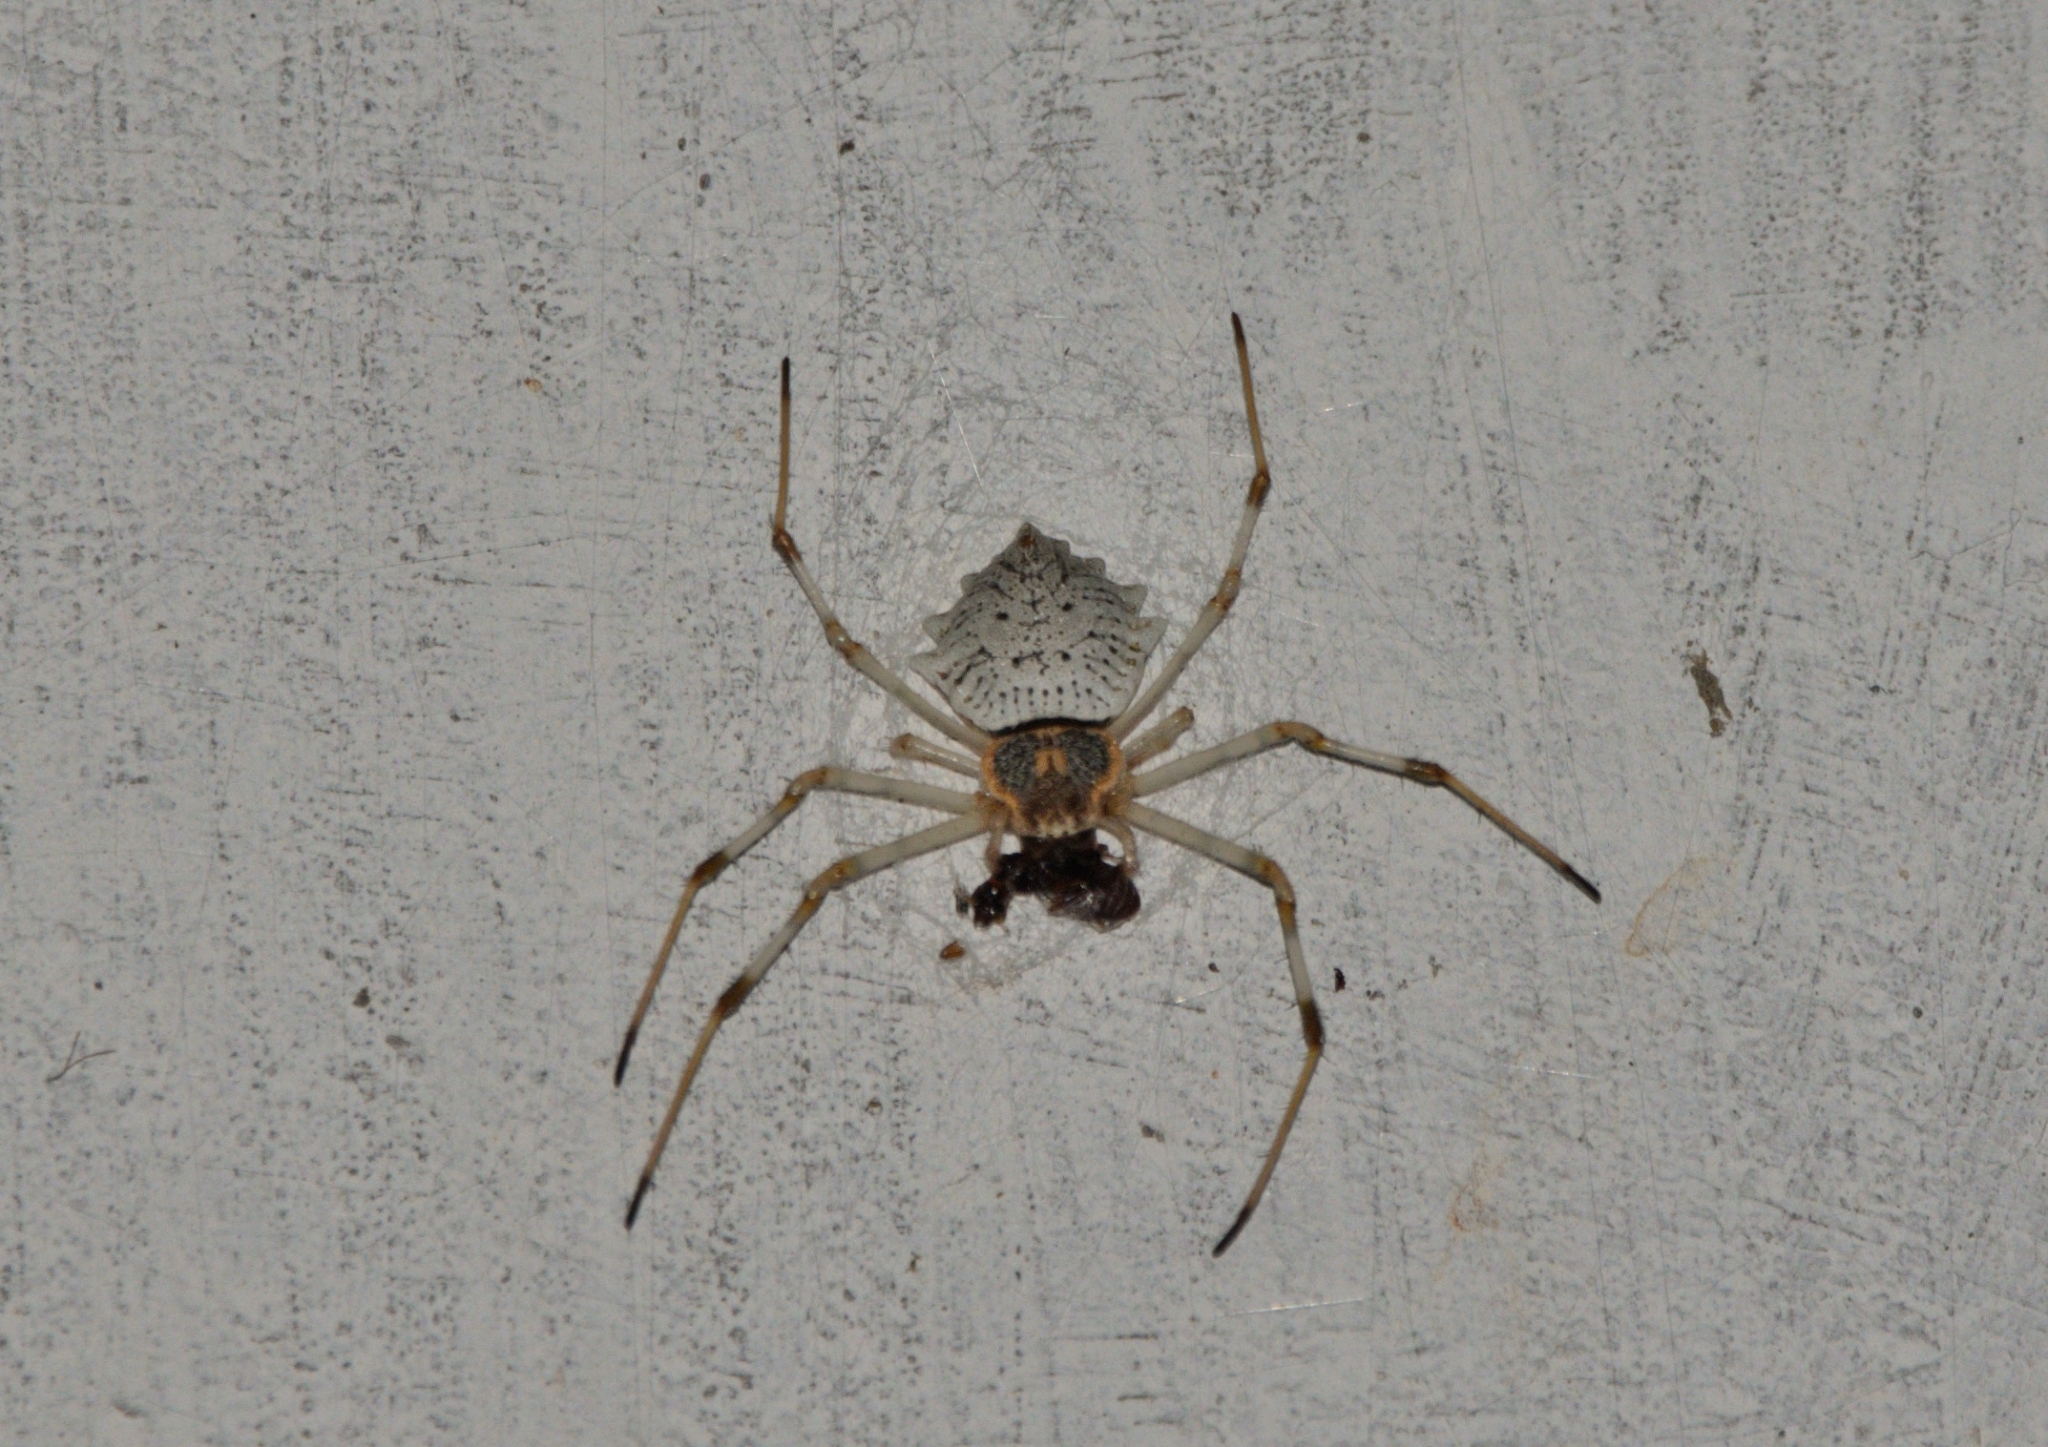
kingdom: Animalia
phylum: Arthropoda
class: Arachnida
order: Araneae
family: Araneidae
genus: Herennia
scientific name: Herennia multipuncta
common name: Spotted coin spider
